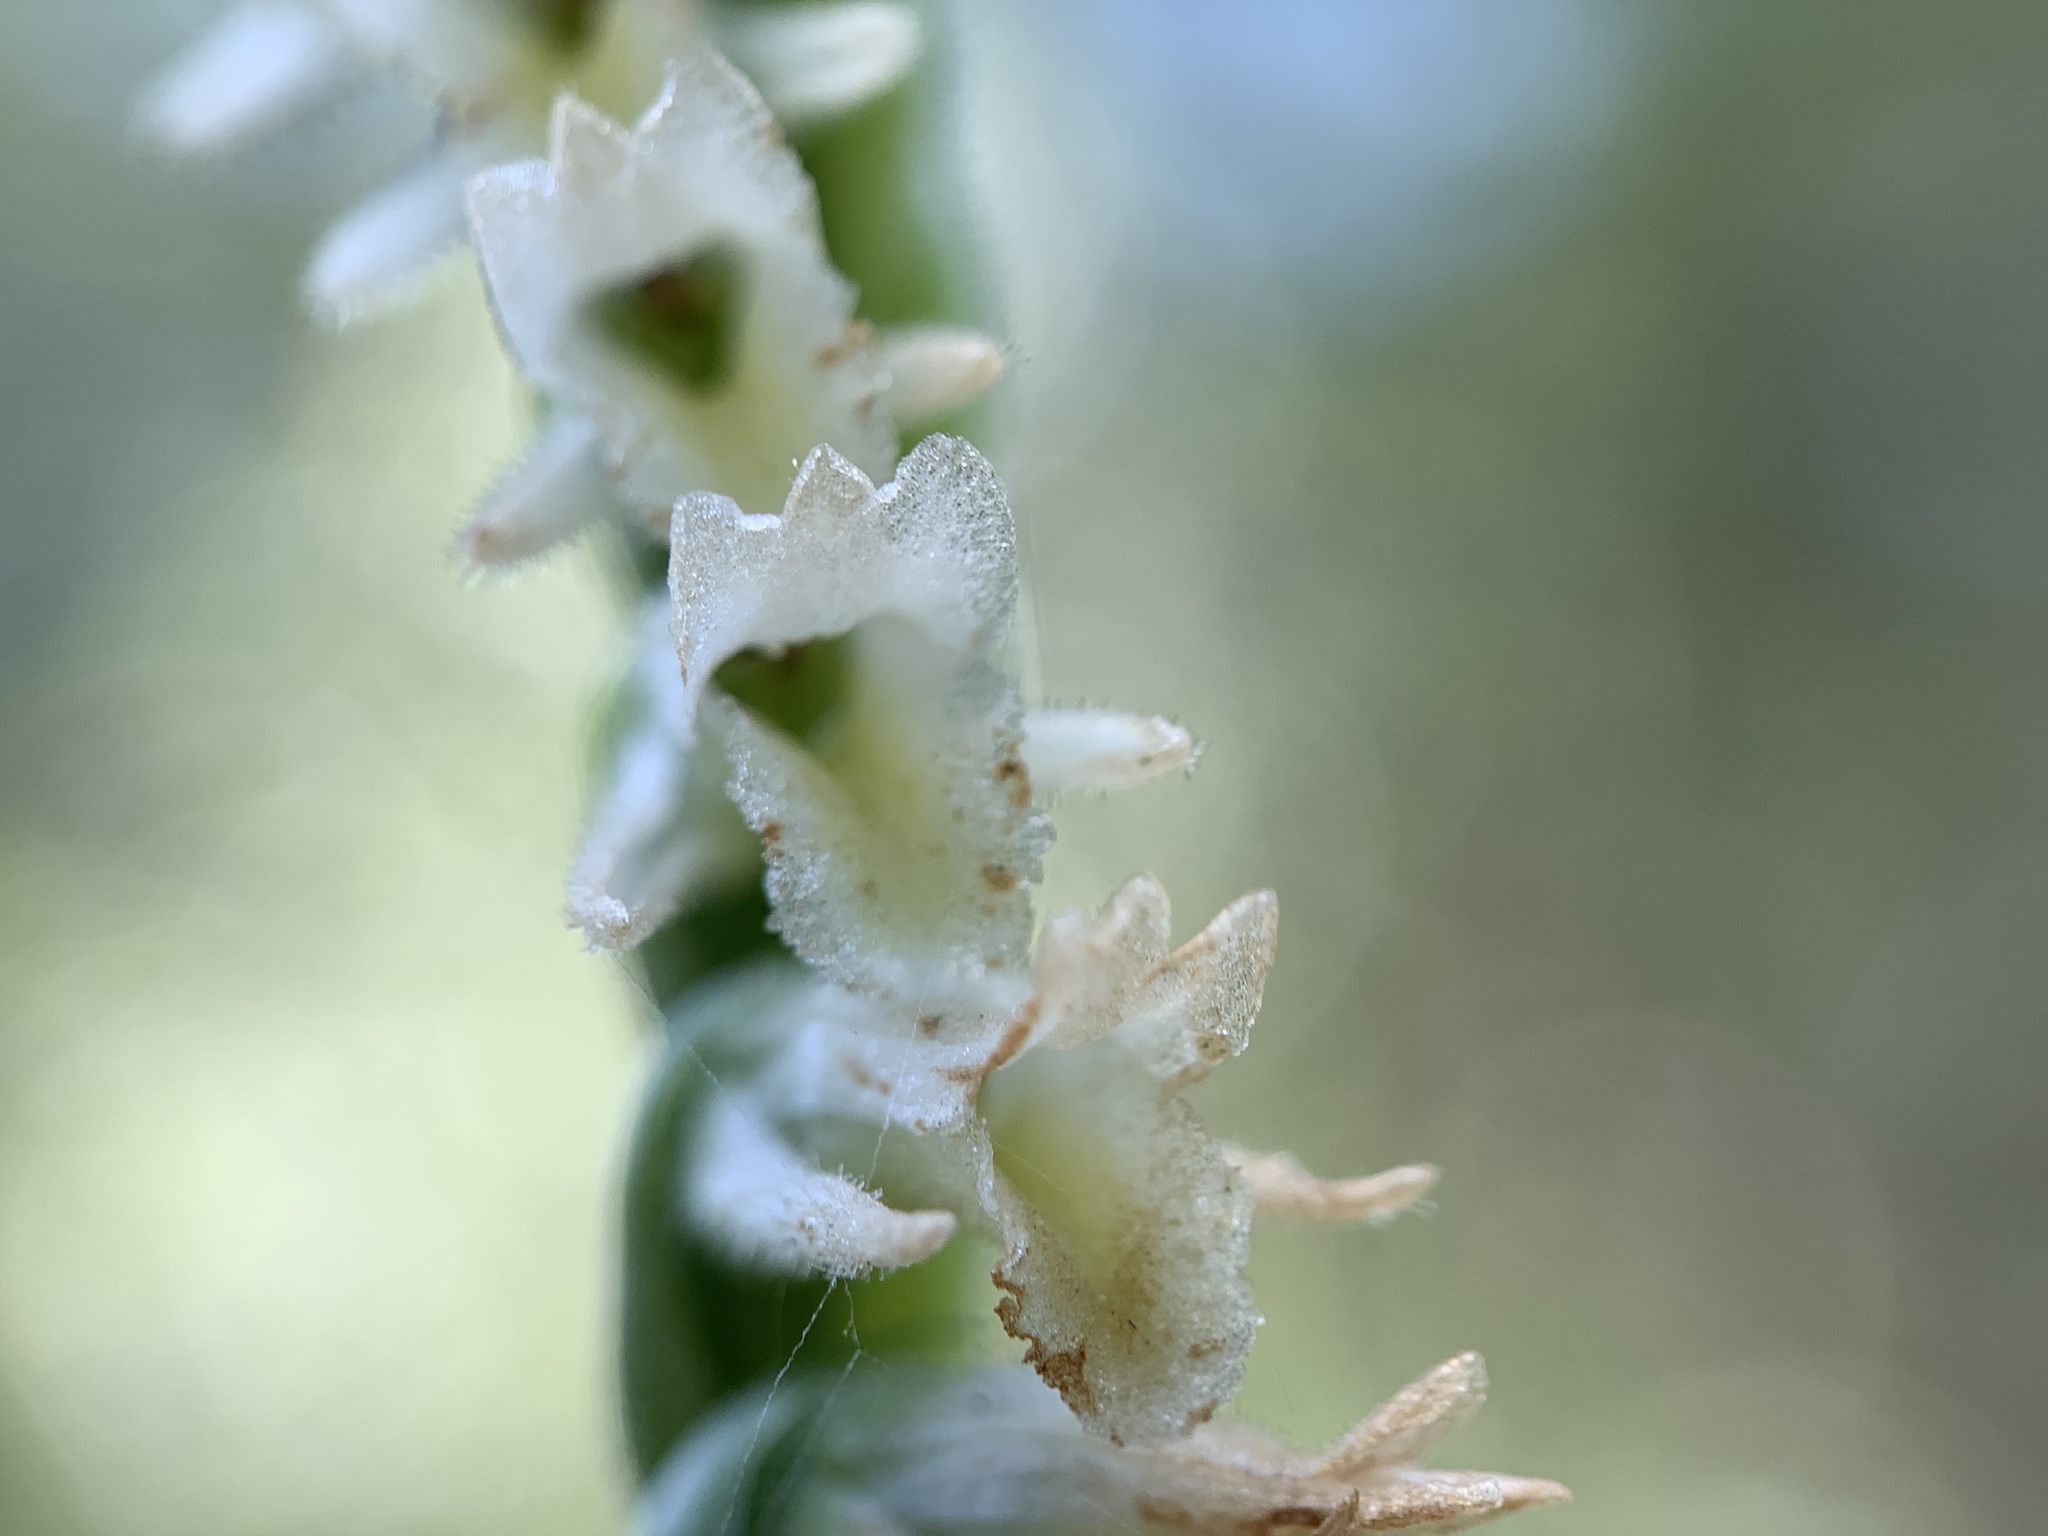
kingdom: Plantae
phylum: Tracheophyta
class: Liliopsida
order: Asparagales
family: Orchidaceae
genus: Spiranthes
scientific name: Spiranthes vernalis
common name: Spring ladies'-tresses
